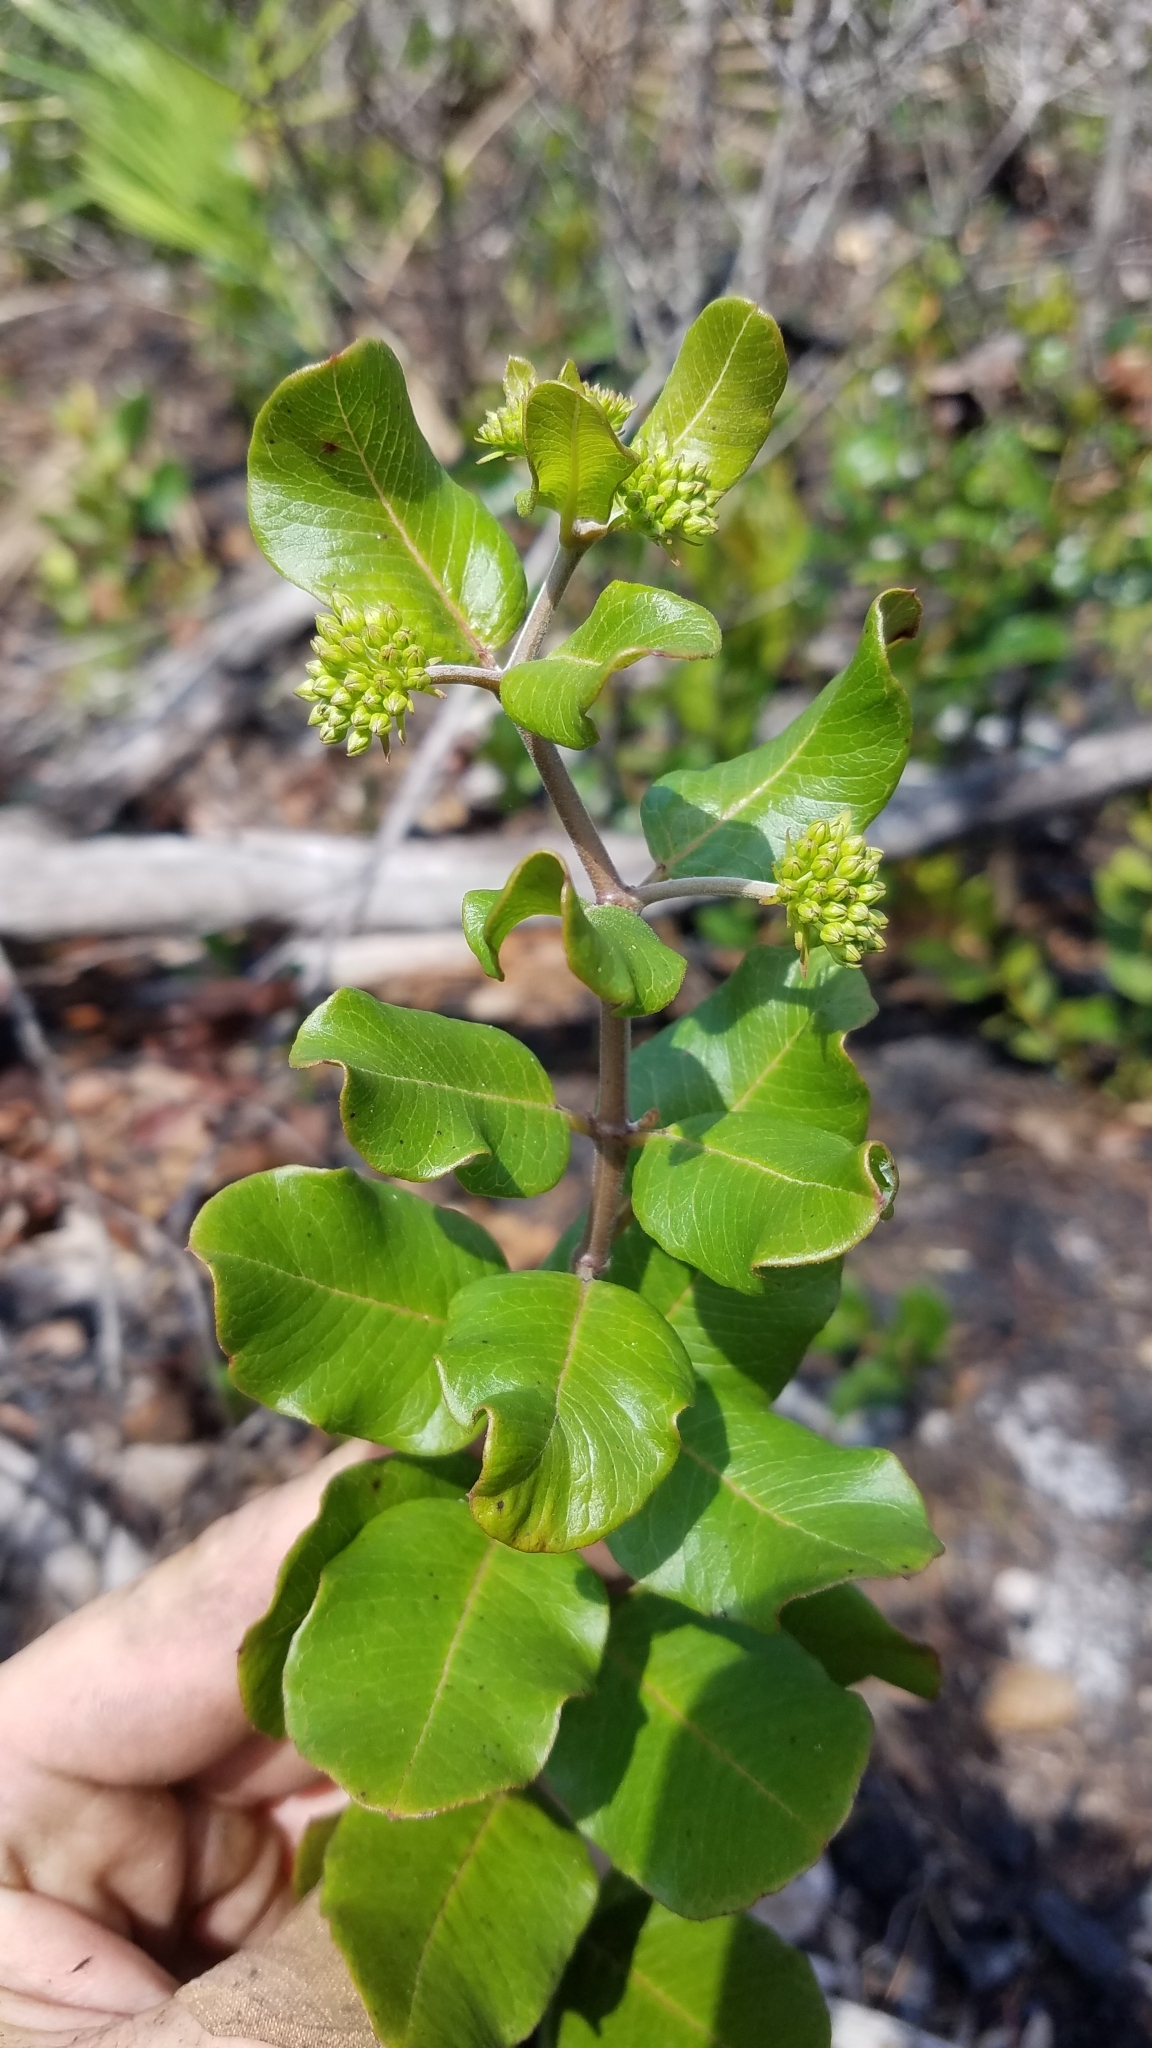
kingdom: Plantae
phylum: Tracheophyta
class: Magnoliopsida
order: Gentianales
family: Apocynaceae
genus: Asclepias
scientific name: Asclepias curtissii
